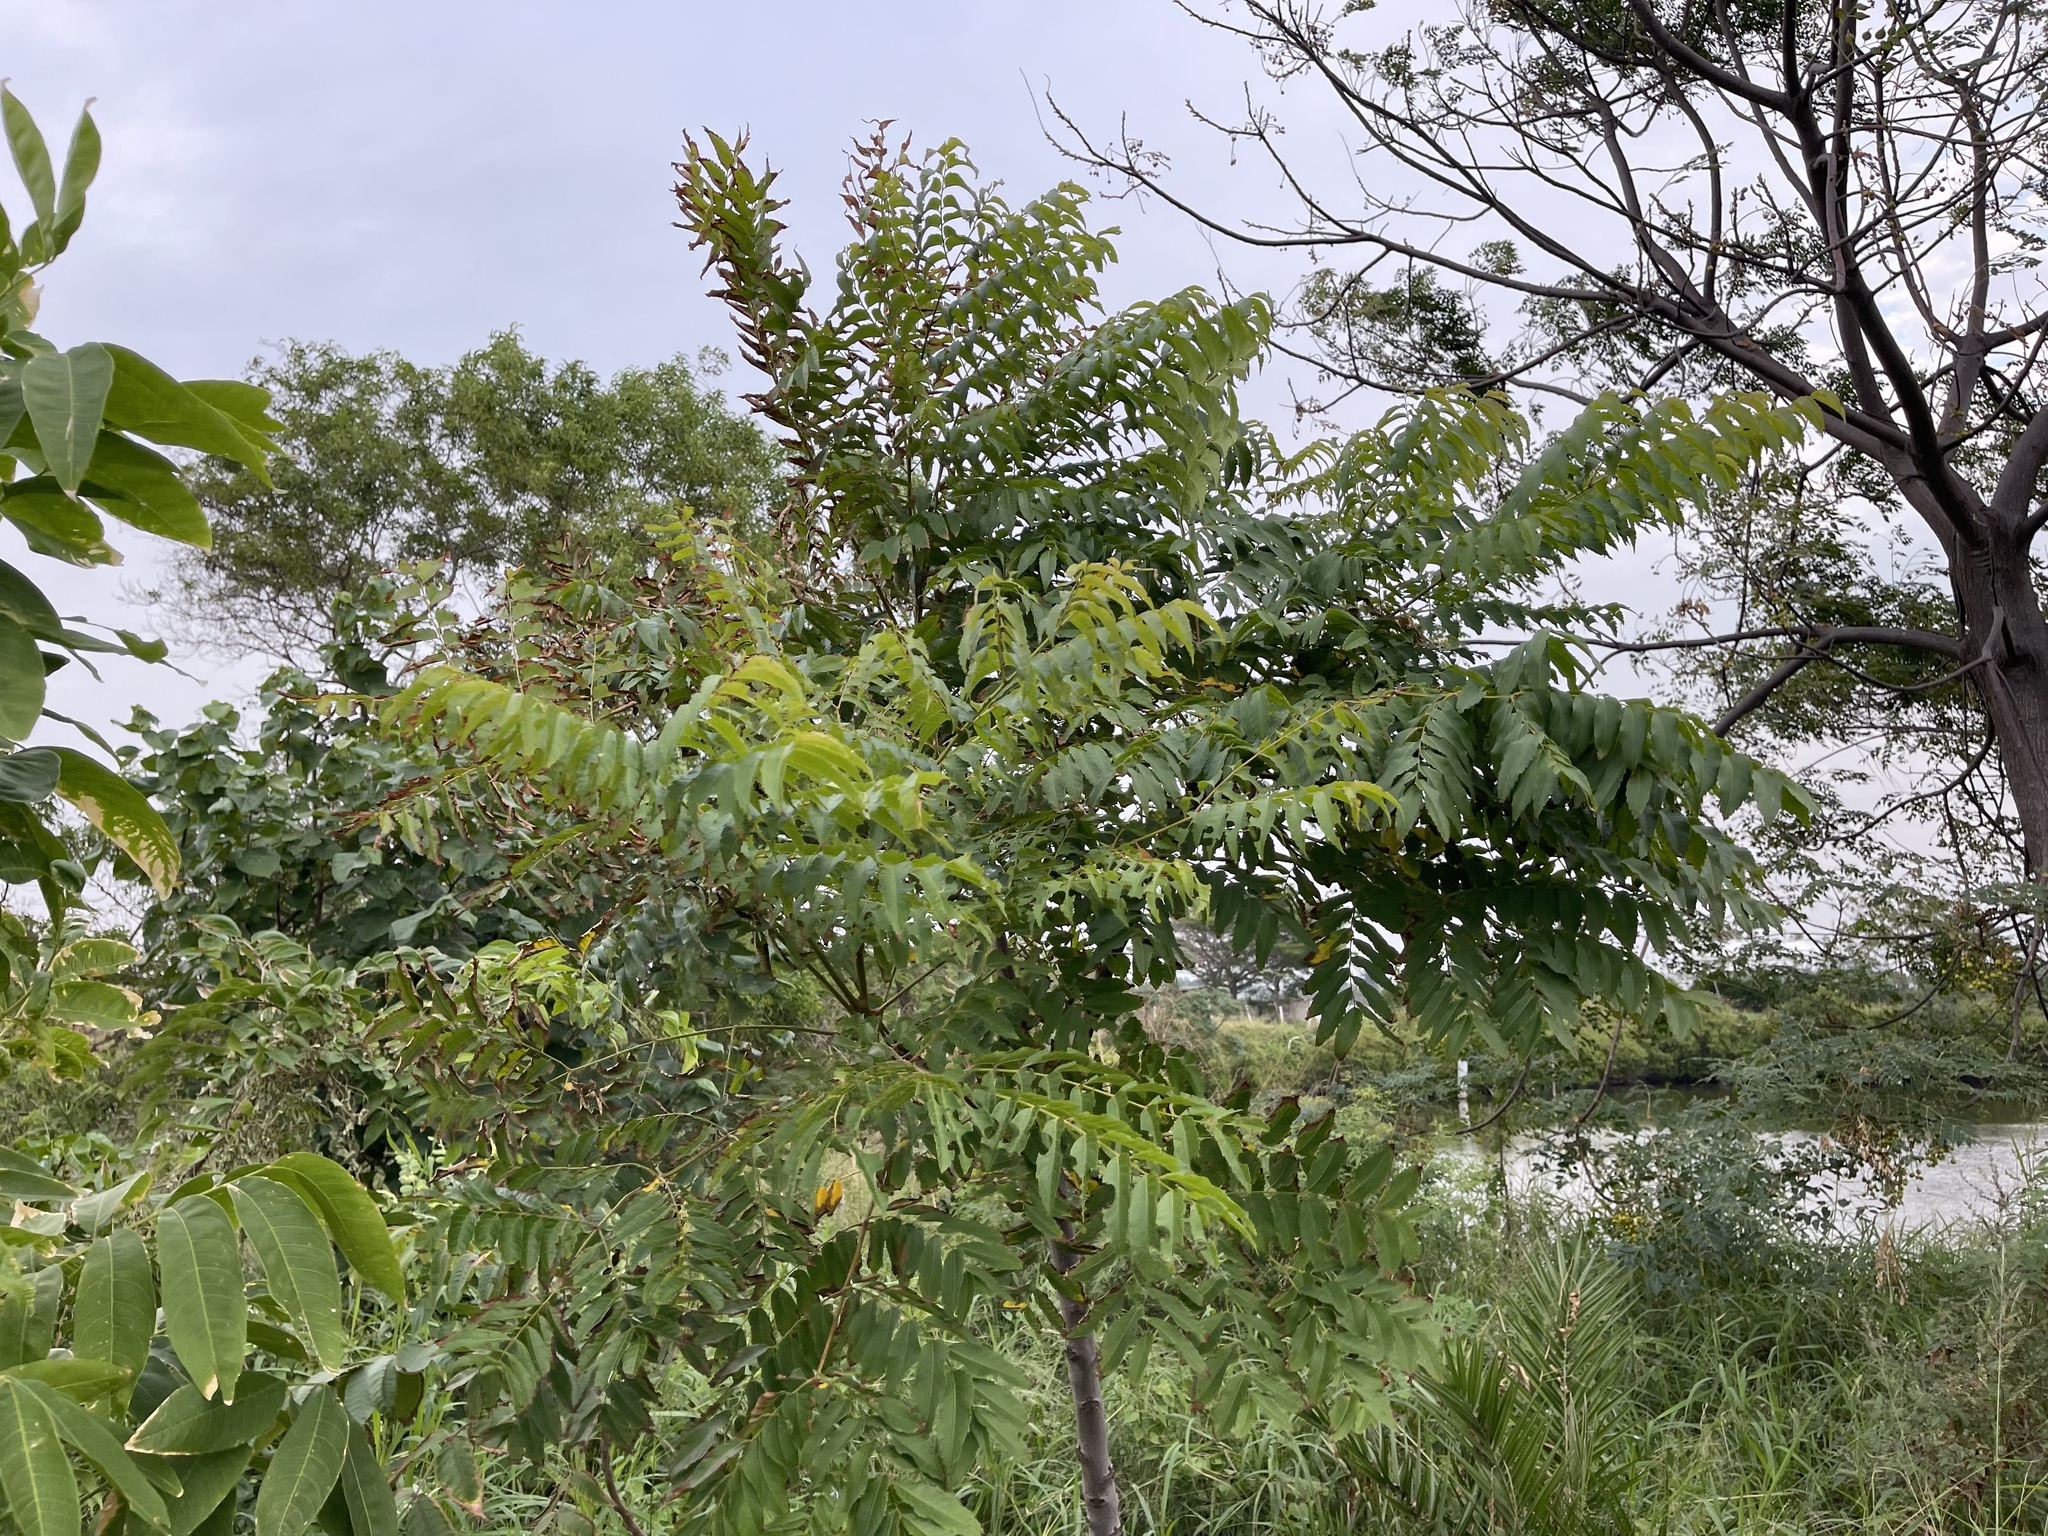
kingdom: Plantae
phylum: Tracheophyta
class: Magnoliopsida
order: Sapindales
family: Sapindaceae
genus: Koelreuteria
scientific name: Koelreuteria elegans
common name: Chinese flame tree
